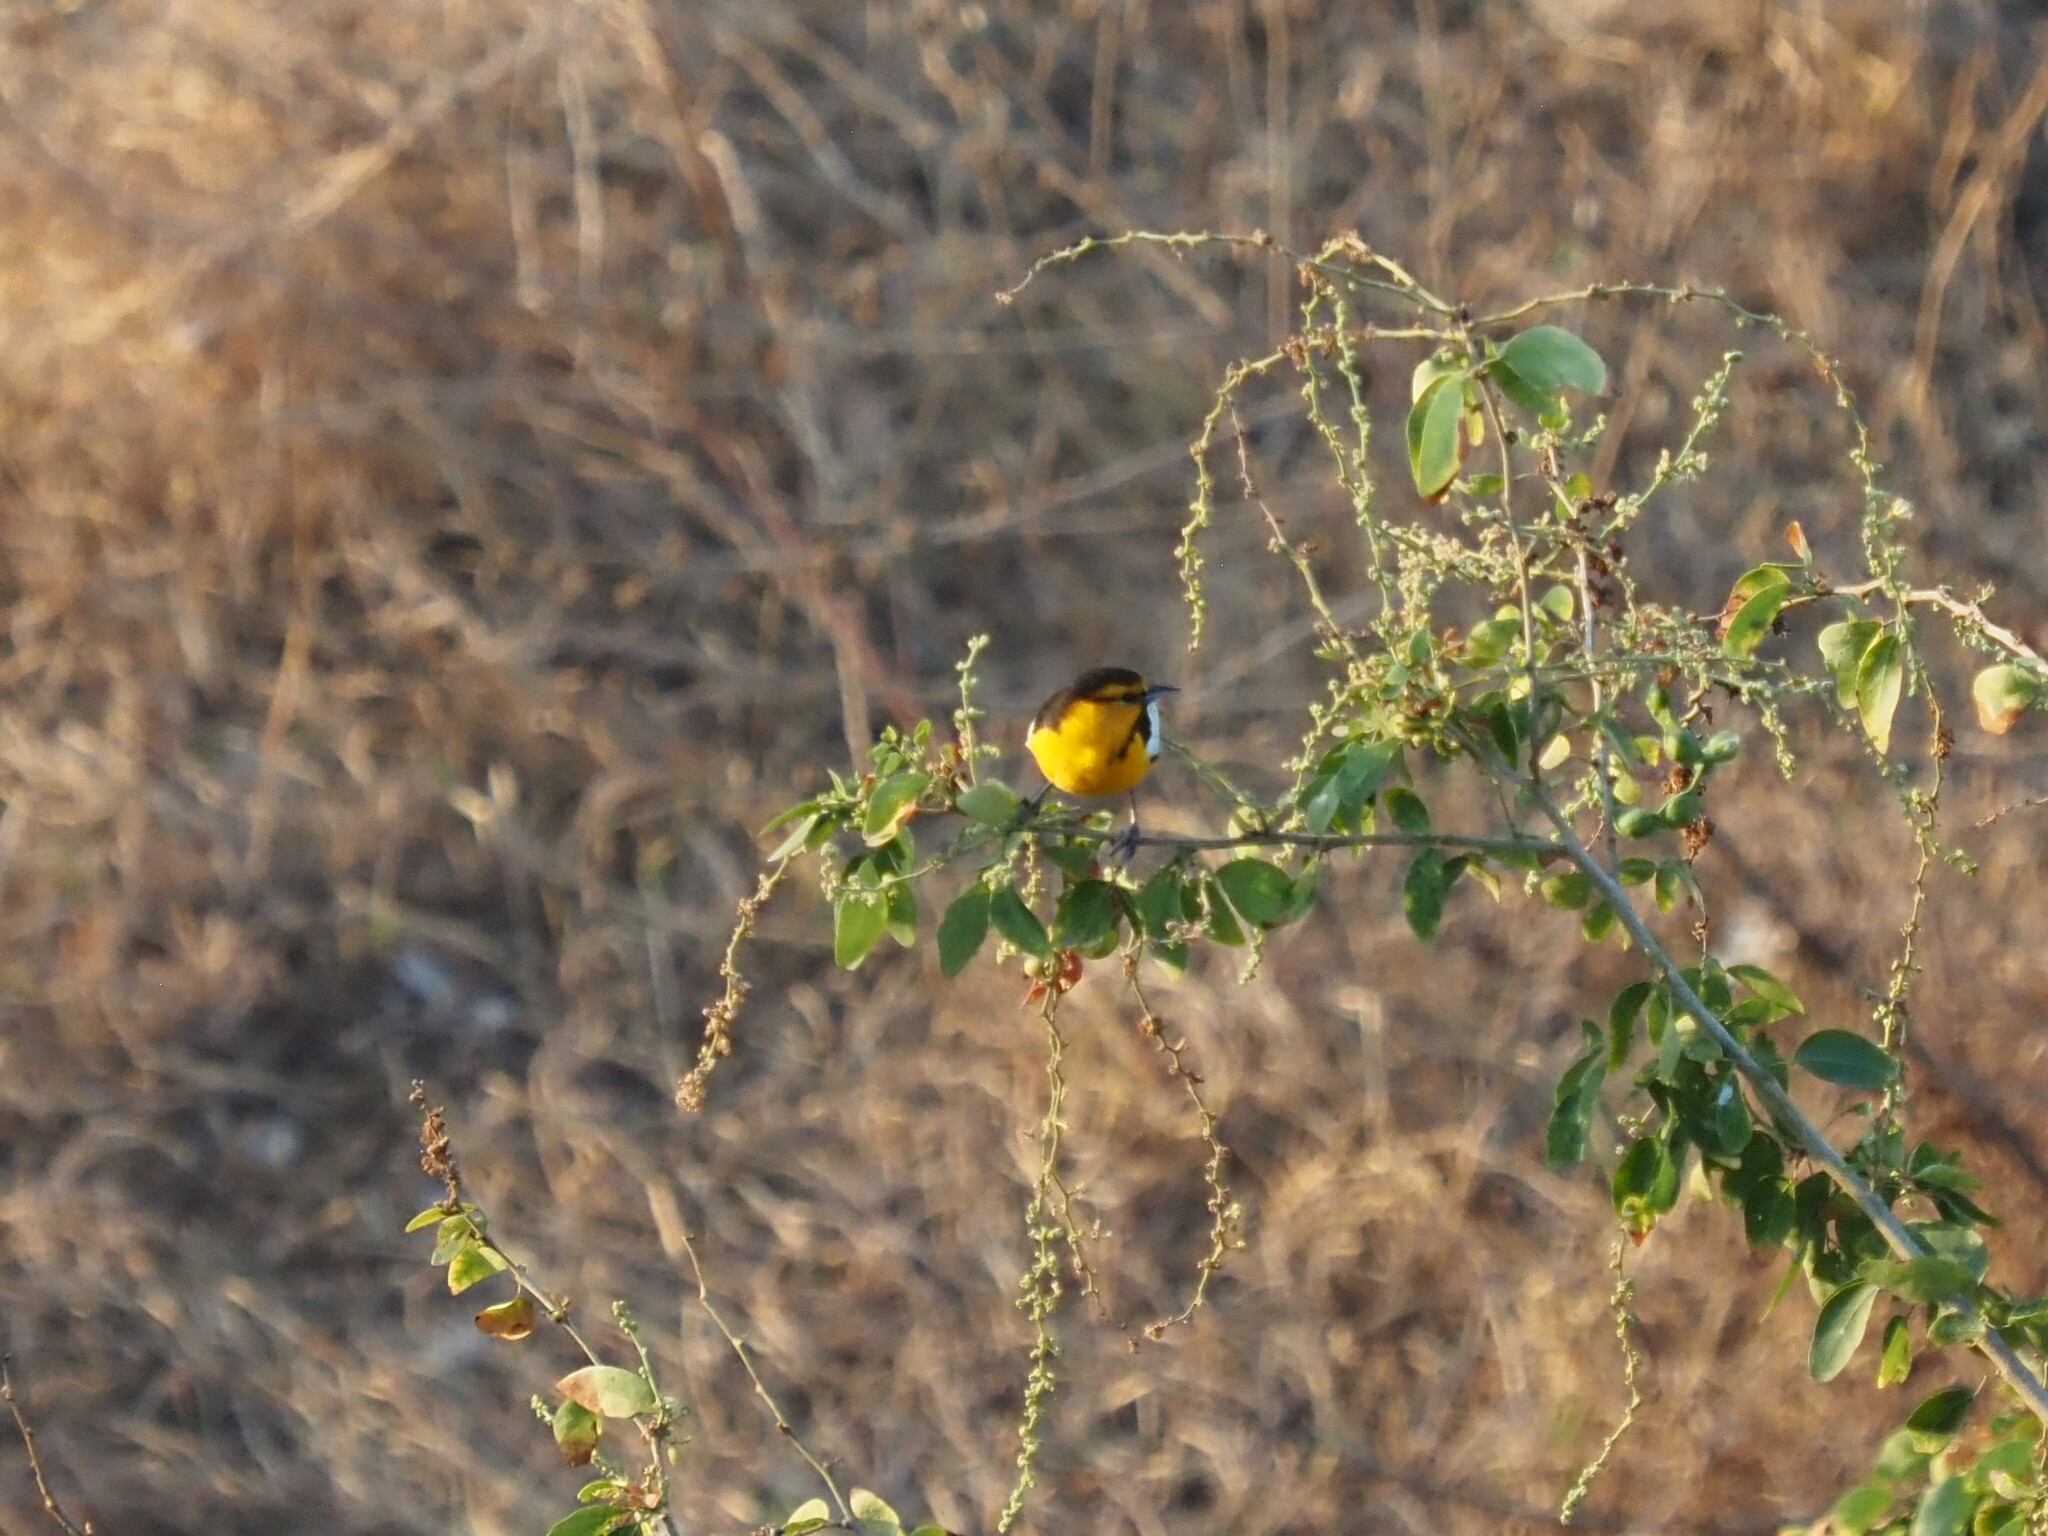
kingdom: Animalia
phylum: Chordata
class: Aves
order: Passeriformes
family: Icteridae
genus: Icterus
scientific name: Icterus bullockii
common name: Bullock's oriole
